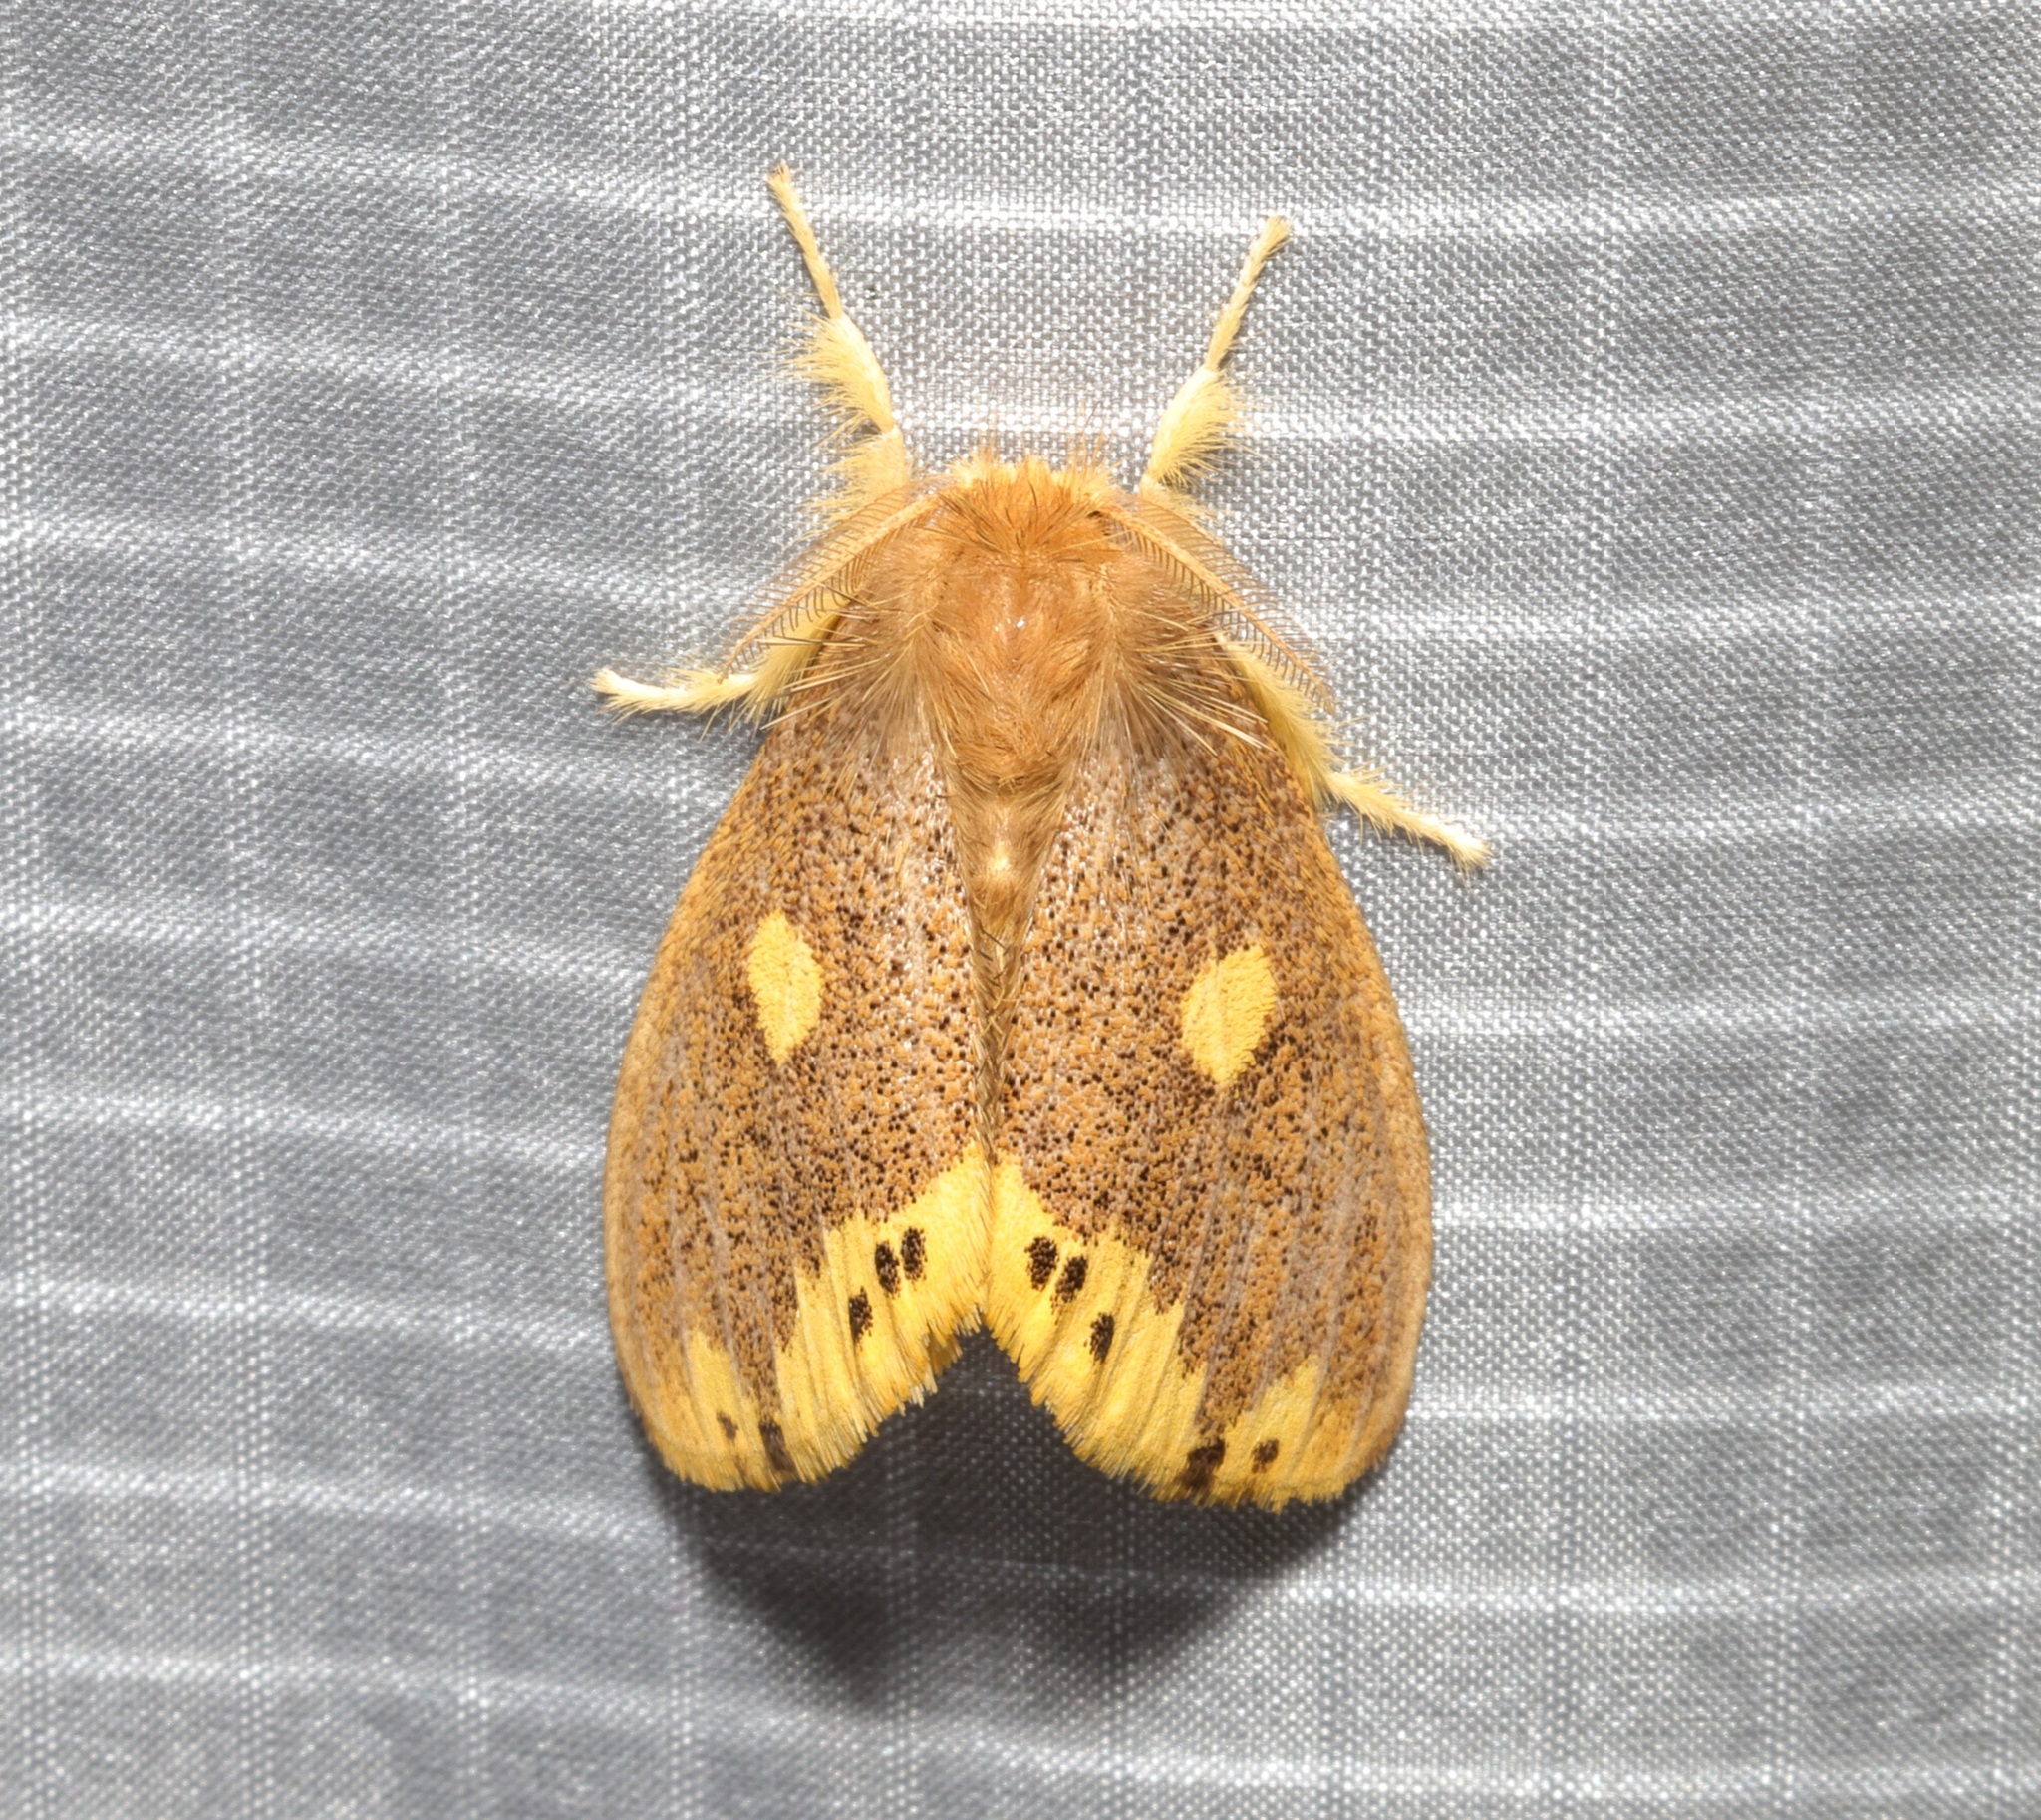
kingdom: Animalia
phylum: Arthropoda
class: Insecta
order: Lepidoptera
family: Erebidae
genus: Euproctis
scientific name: Euproctis quadrangularis
